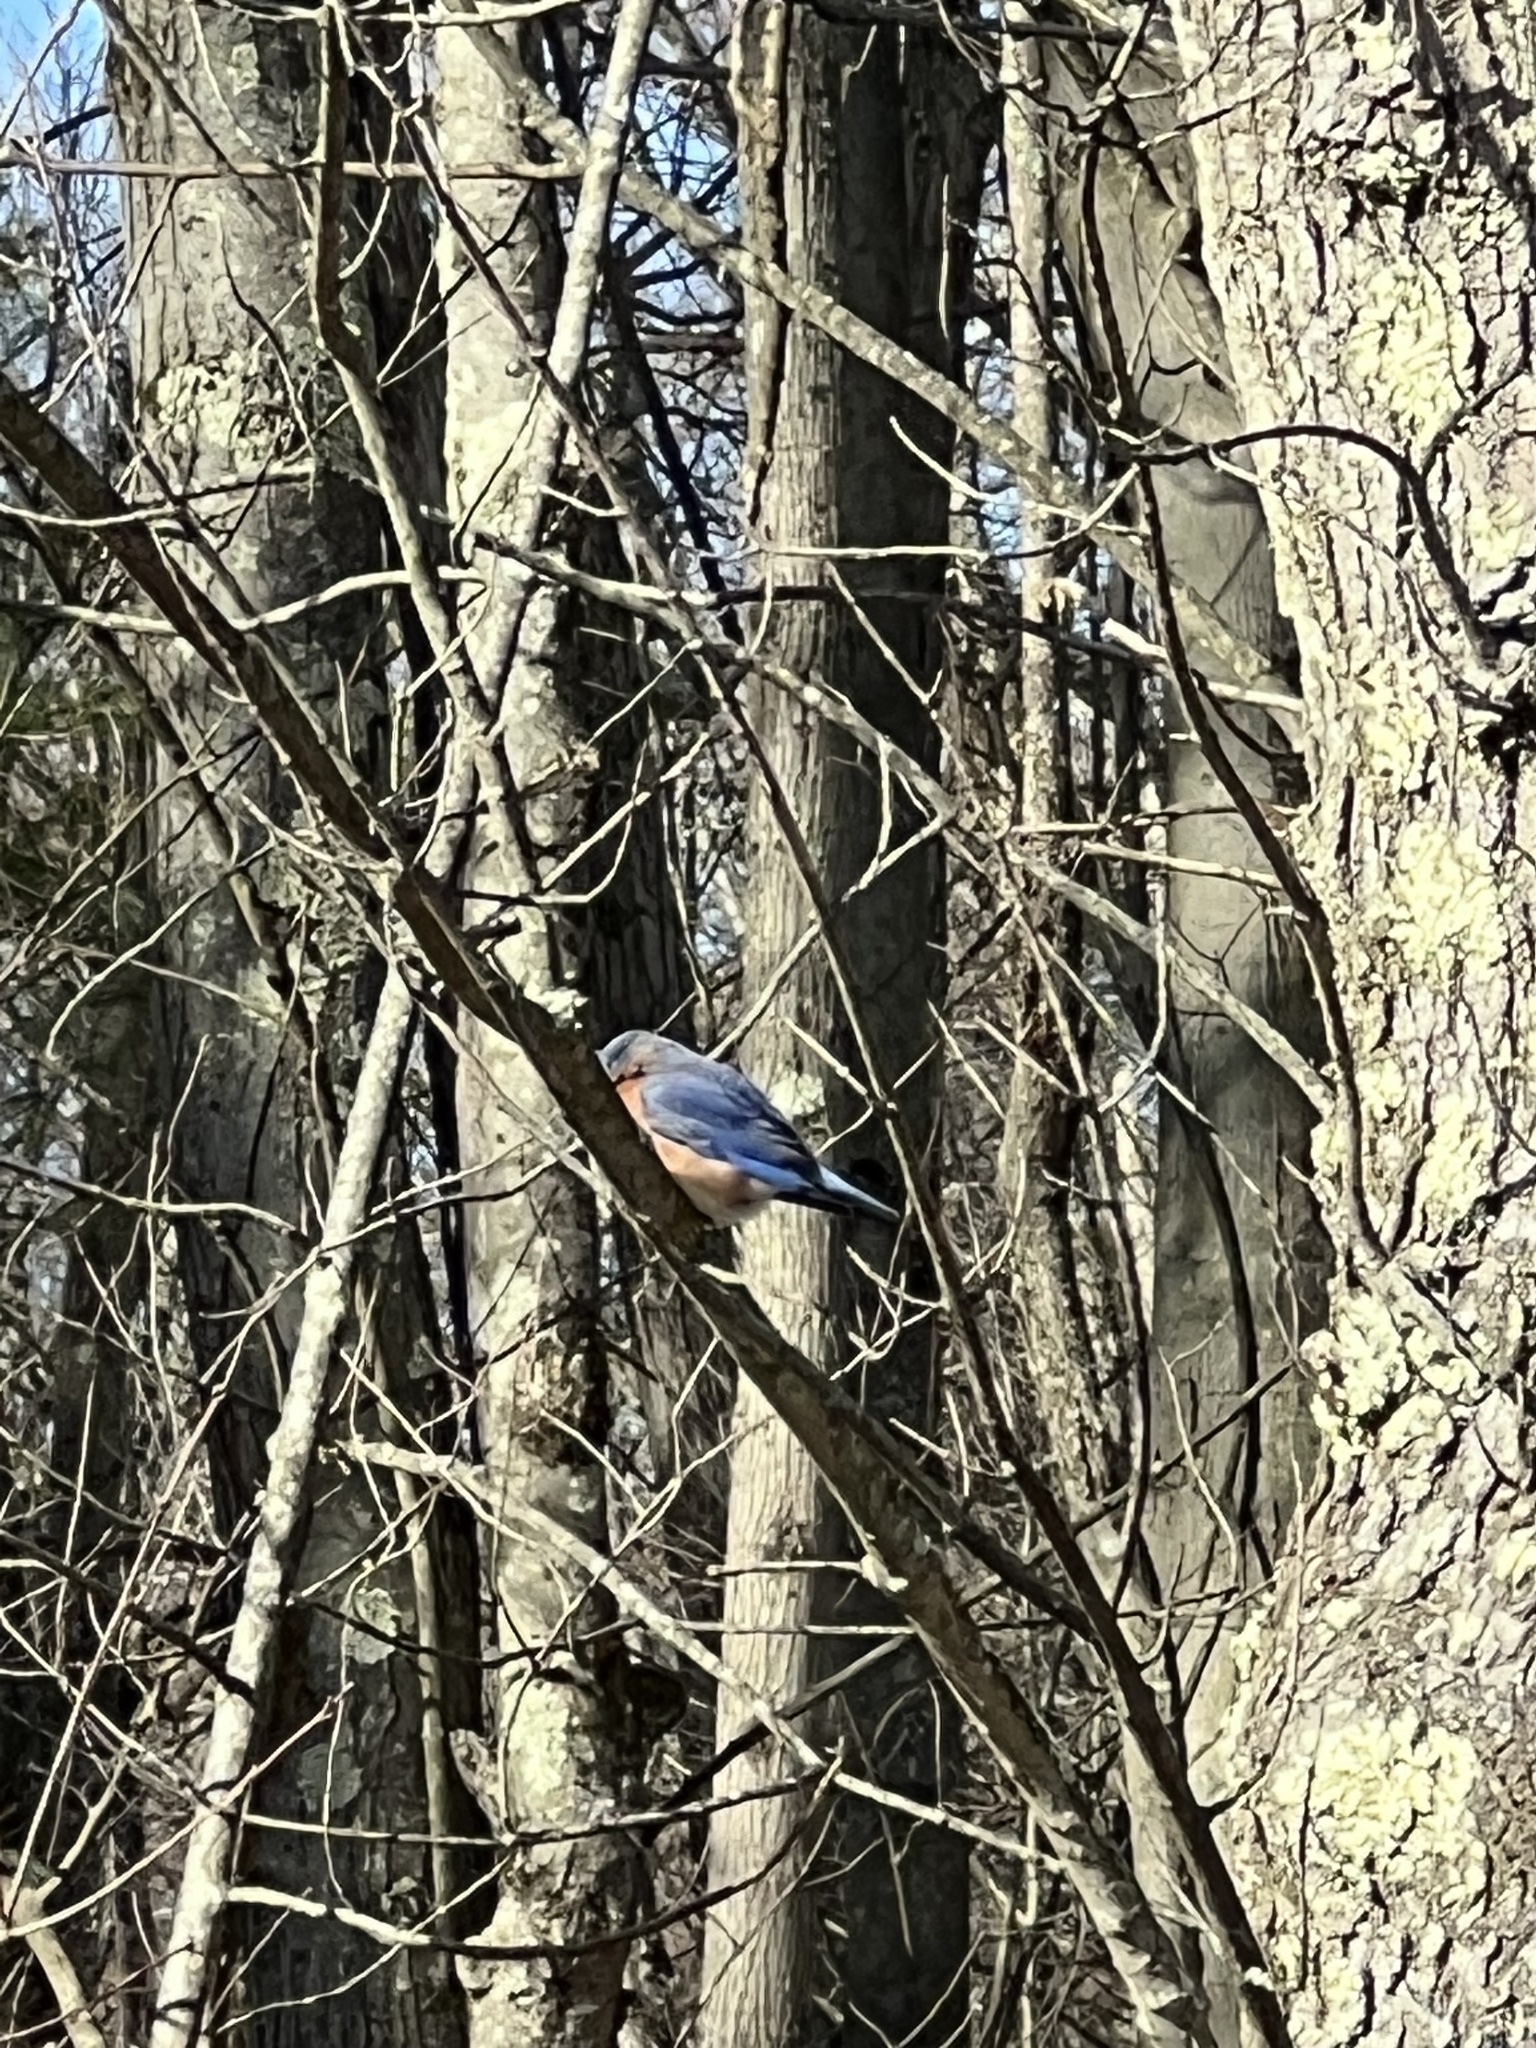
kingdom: Animalia
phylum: Chordata
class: Aves
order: Passeriformes
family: Turdidae
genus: Sialia
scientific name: Sialia sialis
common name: Eastern bluebird
